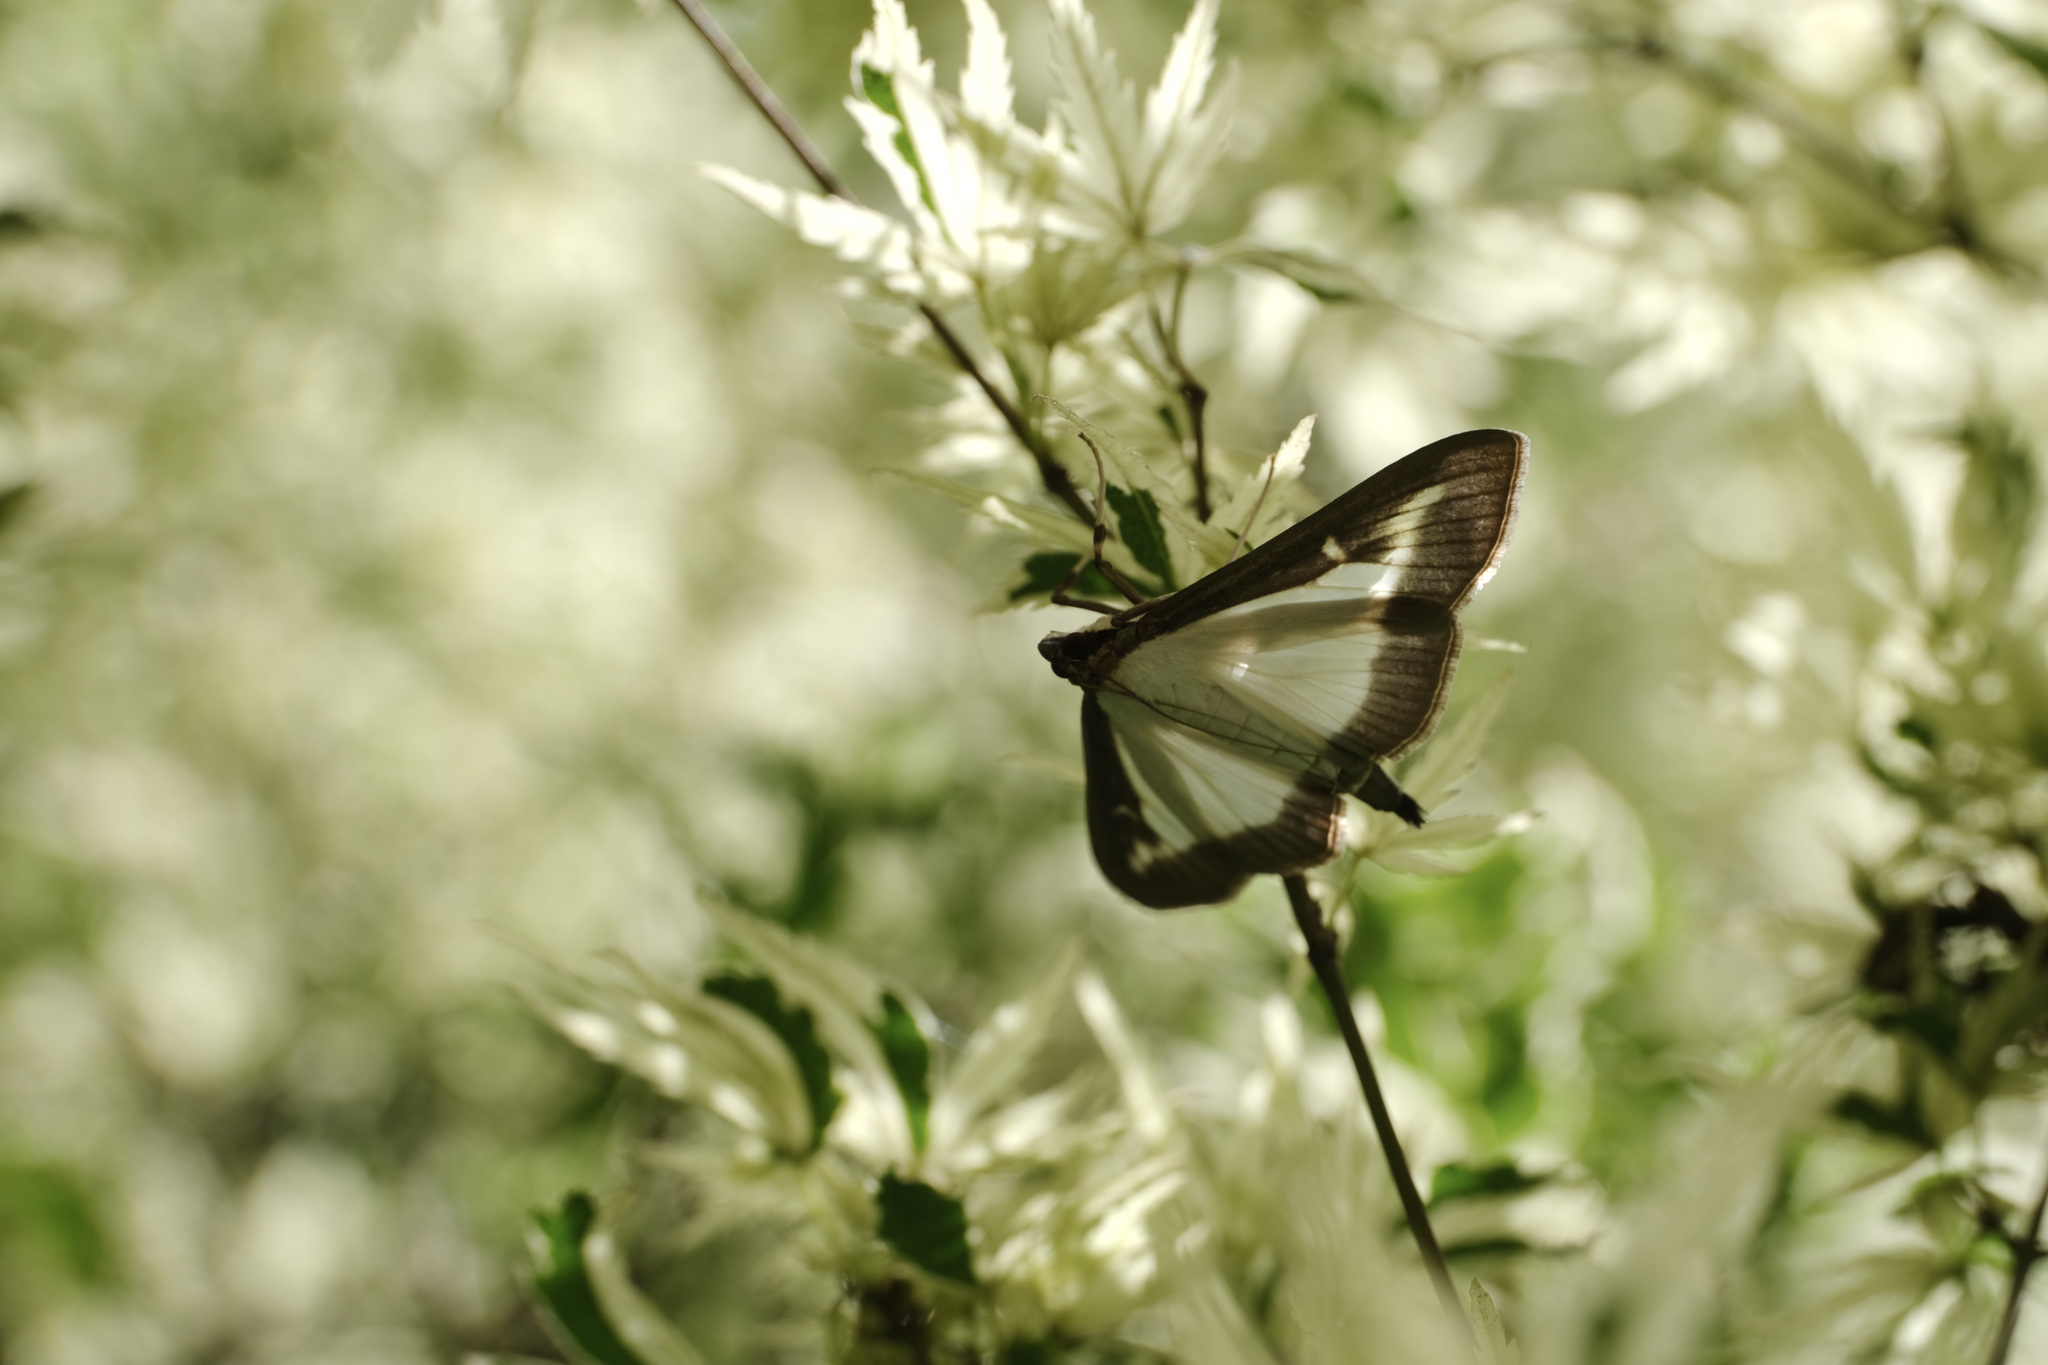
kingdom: Animalia
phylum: Arthropoda
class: Insecta
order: Lepidoptera
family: Crambidae
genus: Cydalima
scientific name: Cydalima perspectalis
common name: Box tree moth
